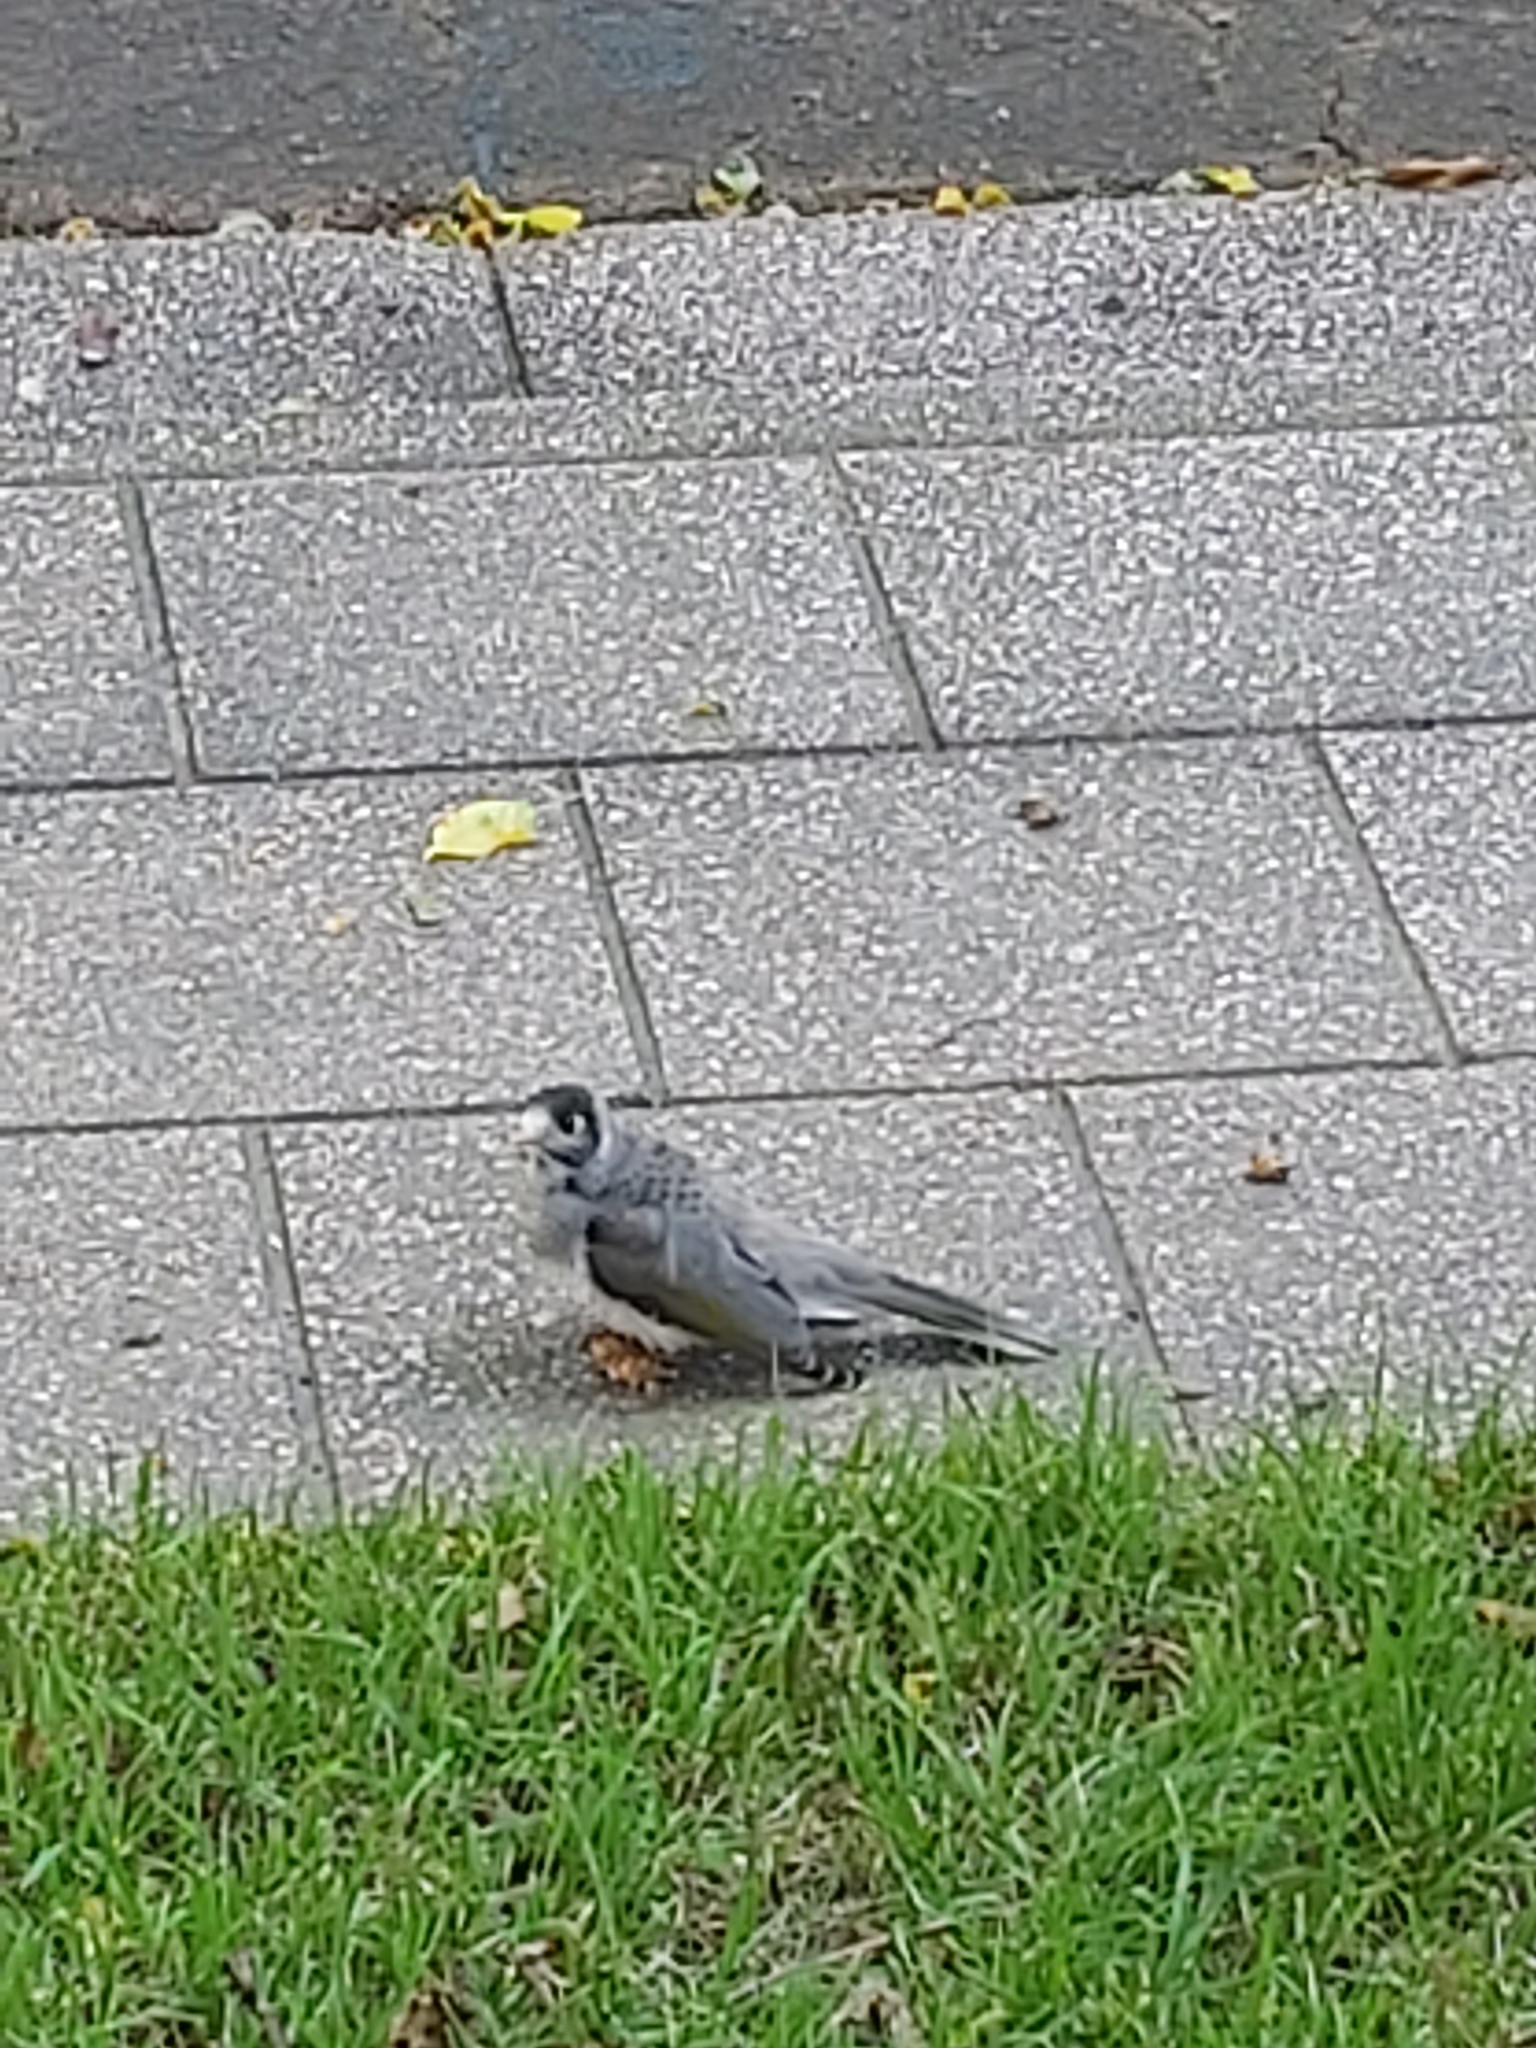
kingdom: Animalia
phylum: Chordata
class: Aves
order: Passeriformes
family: Meliphagidae
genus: Manorina
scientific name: Manorina melanocephala
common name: Noisy miner
